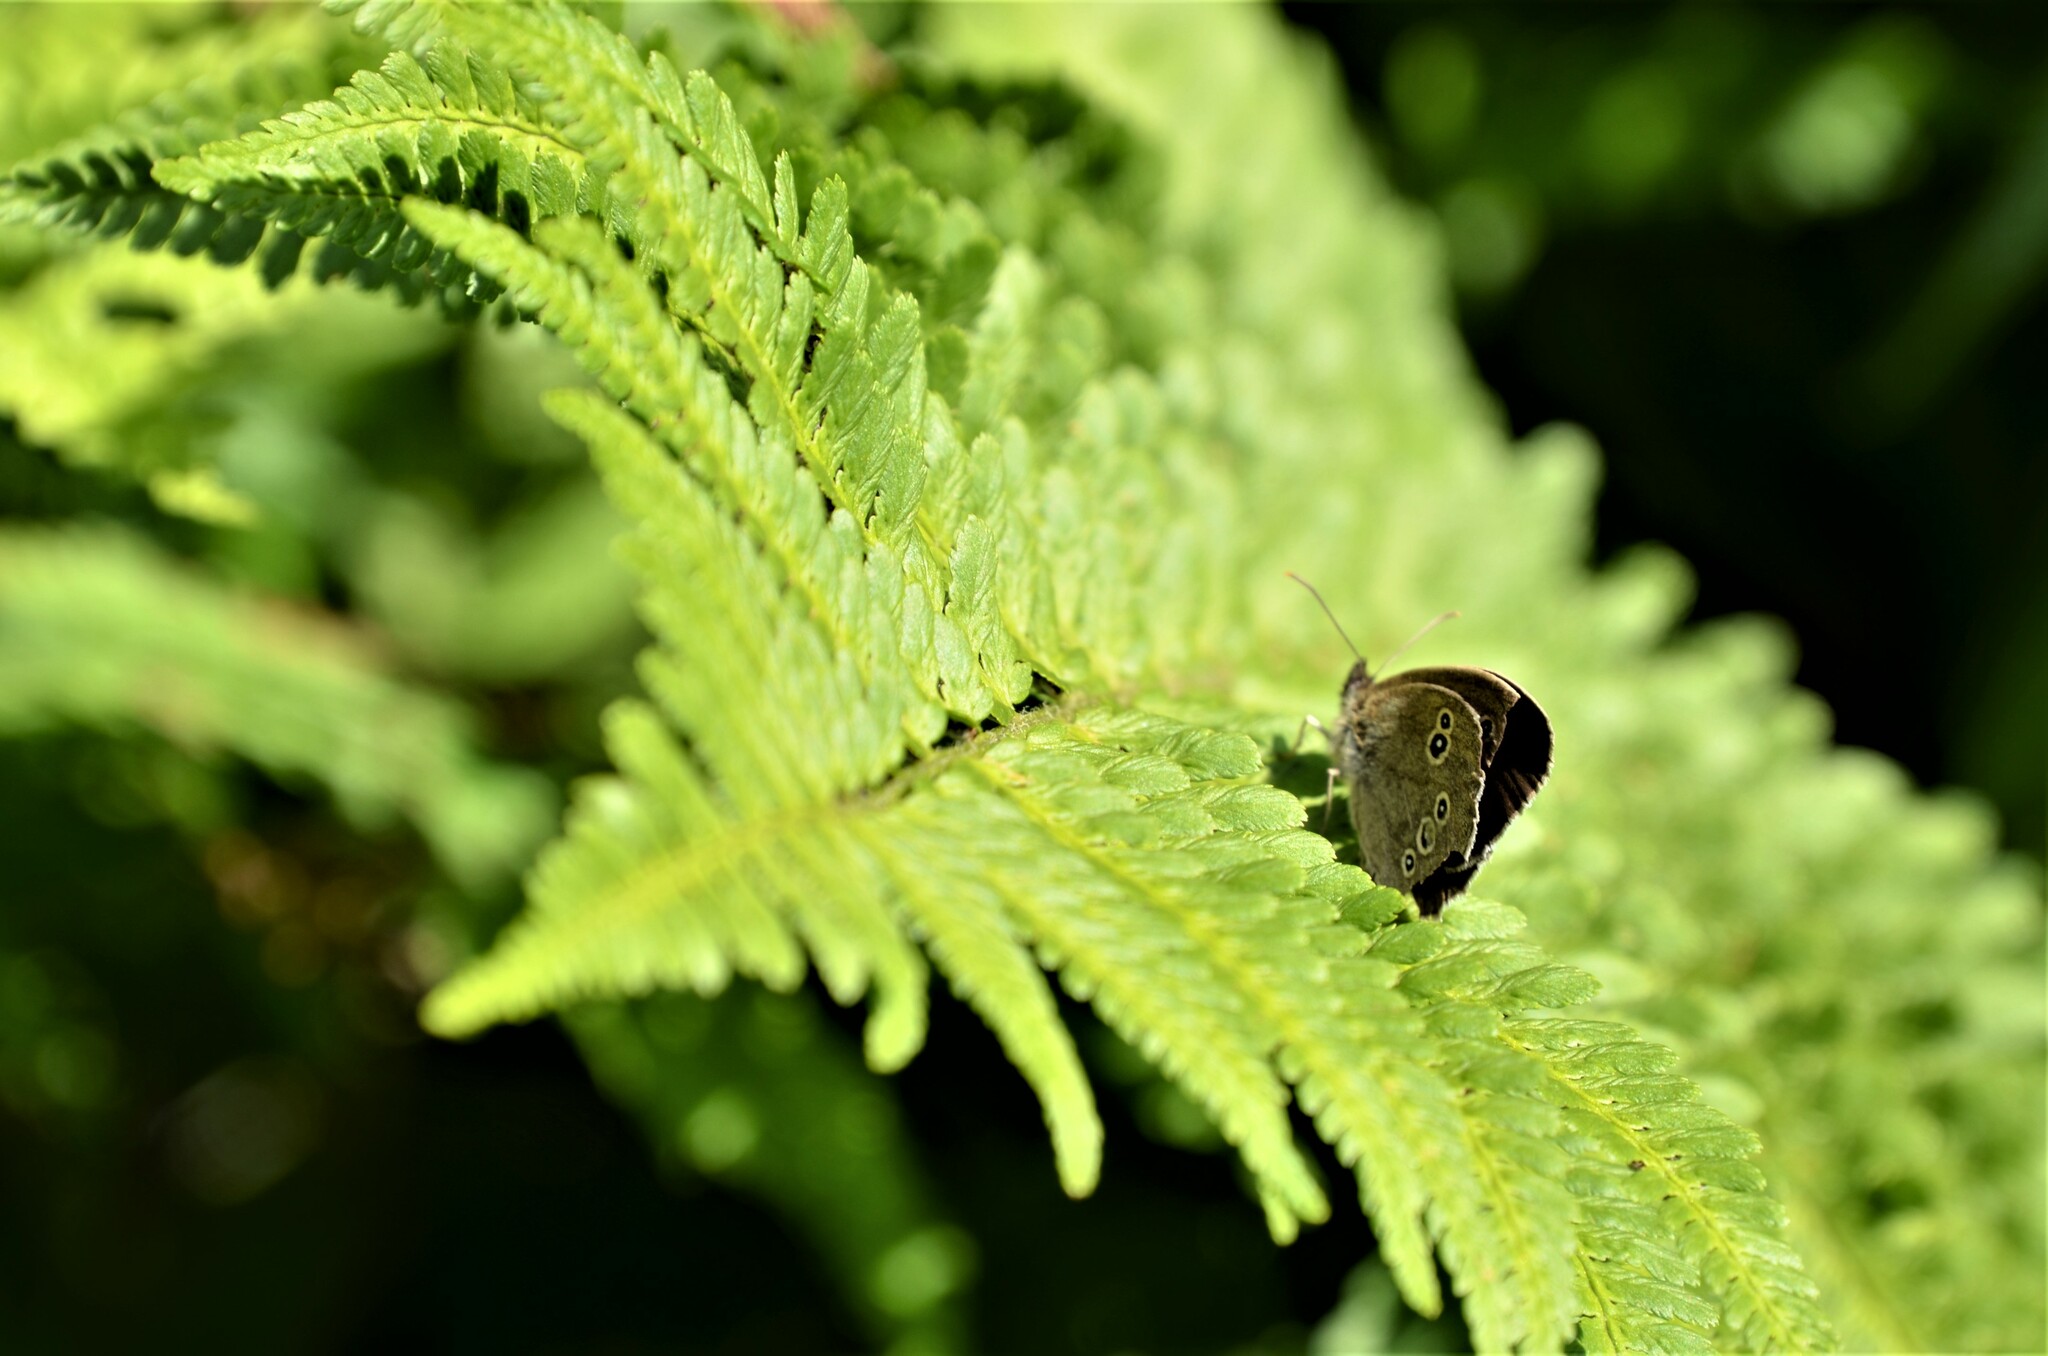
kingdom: Animalia
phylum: Arthropoda
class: Insecta
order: Lepidoptera
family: Nymphalidae
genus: Aphantopus
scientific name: Aphantopus hyperantus
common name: Ringlet
